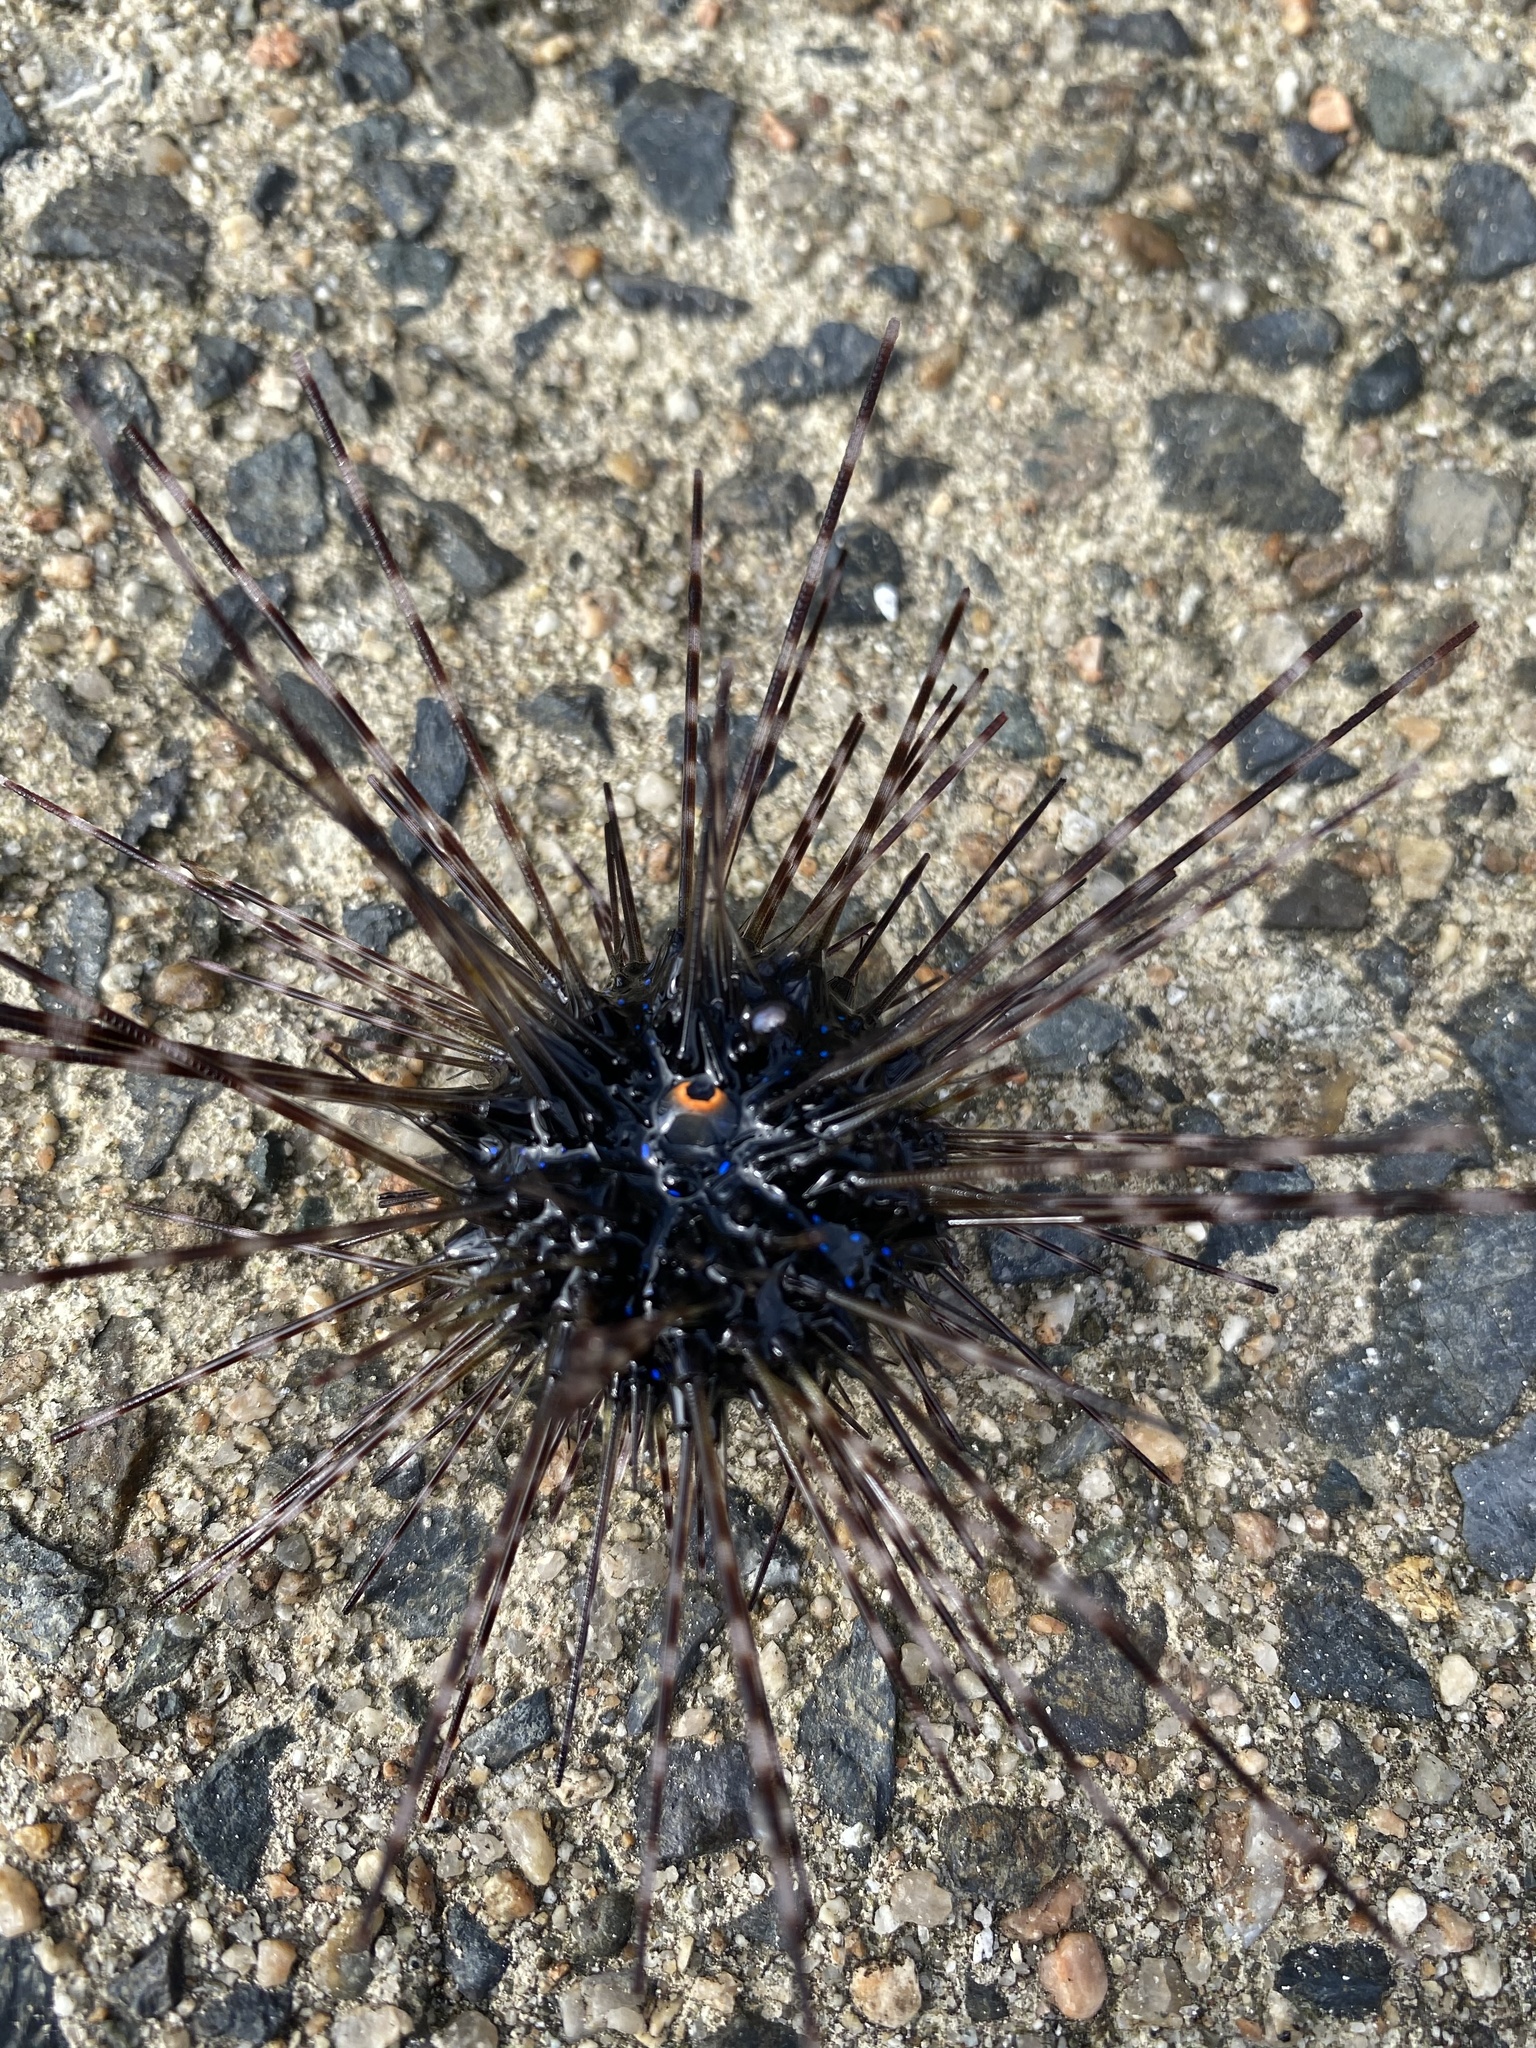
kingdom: Animalia
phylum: Echinodermata
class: Echinoidea
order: Diadematoida
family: Diadematidae
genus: Diadema
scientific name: Diadema setosum
